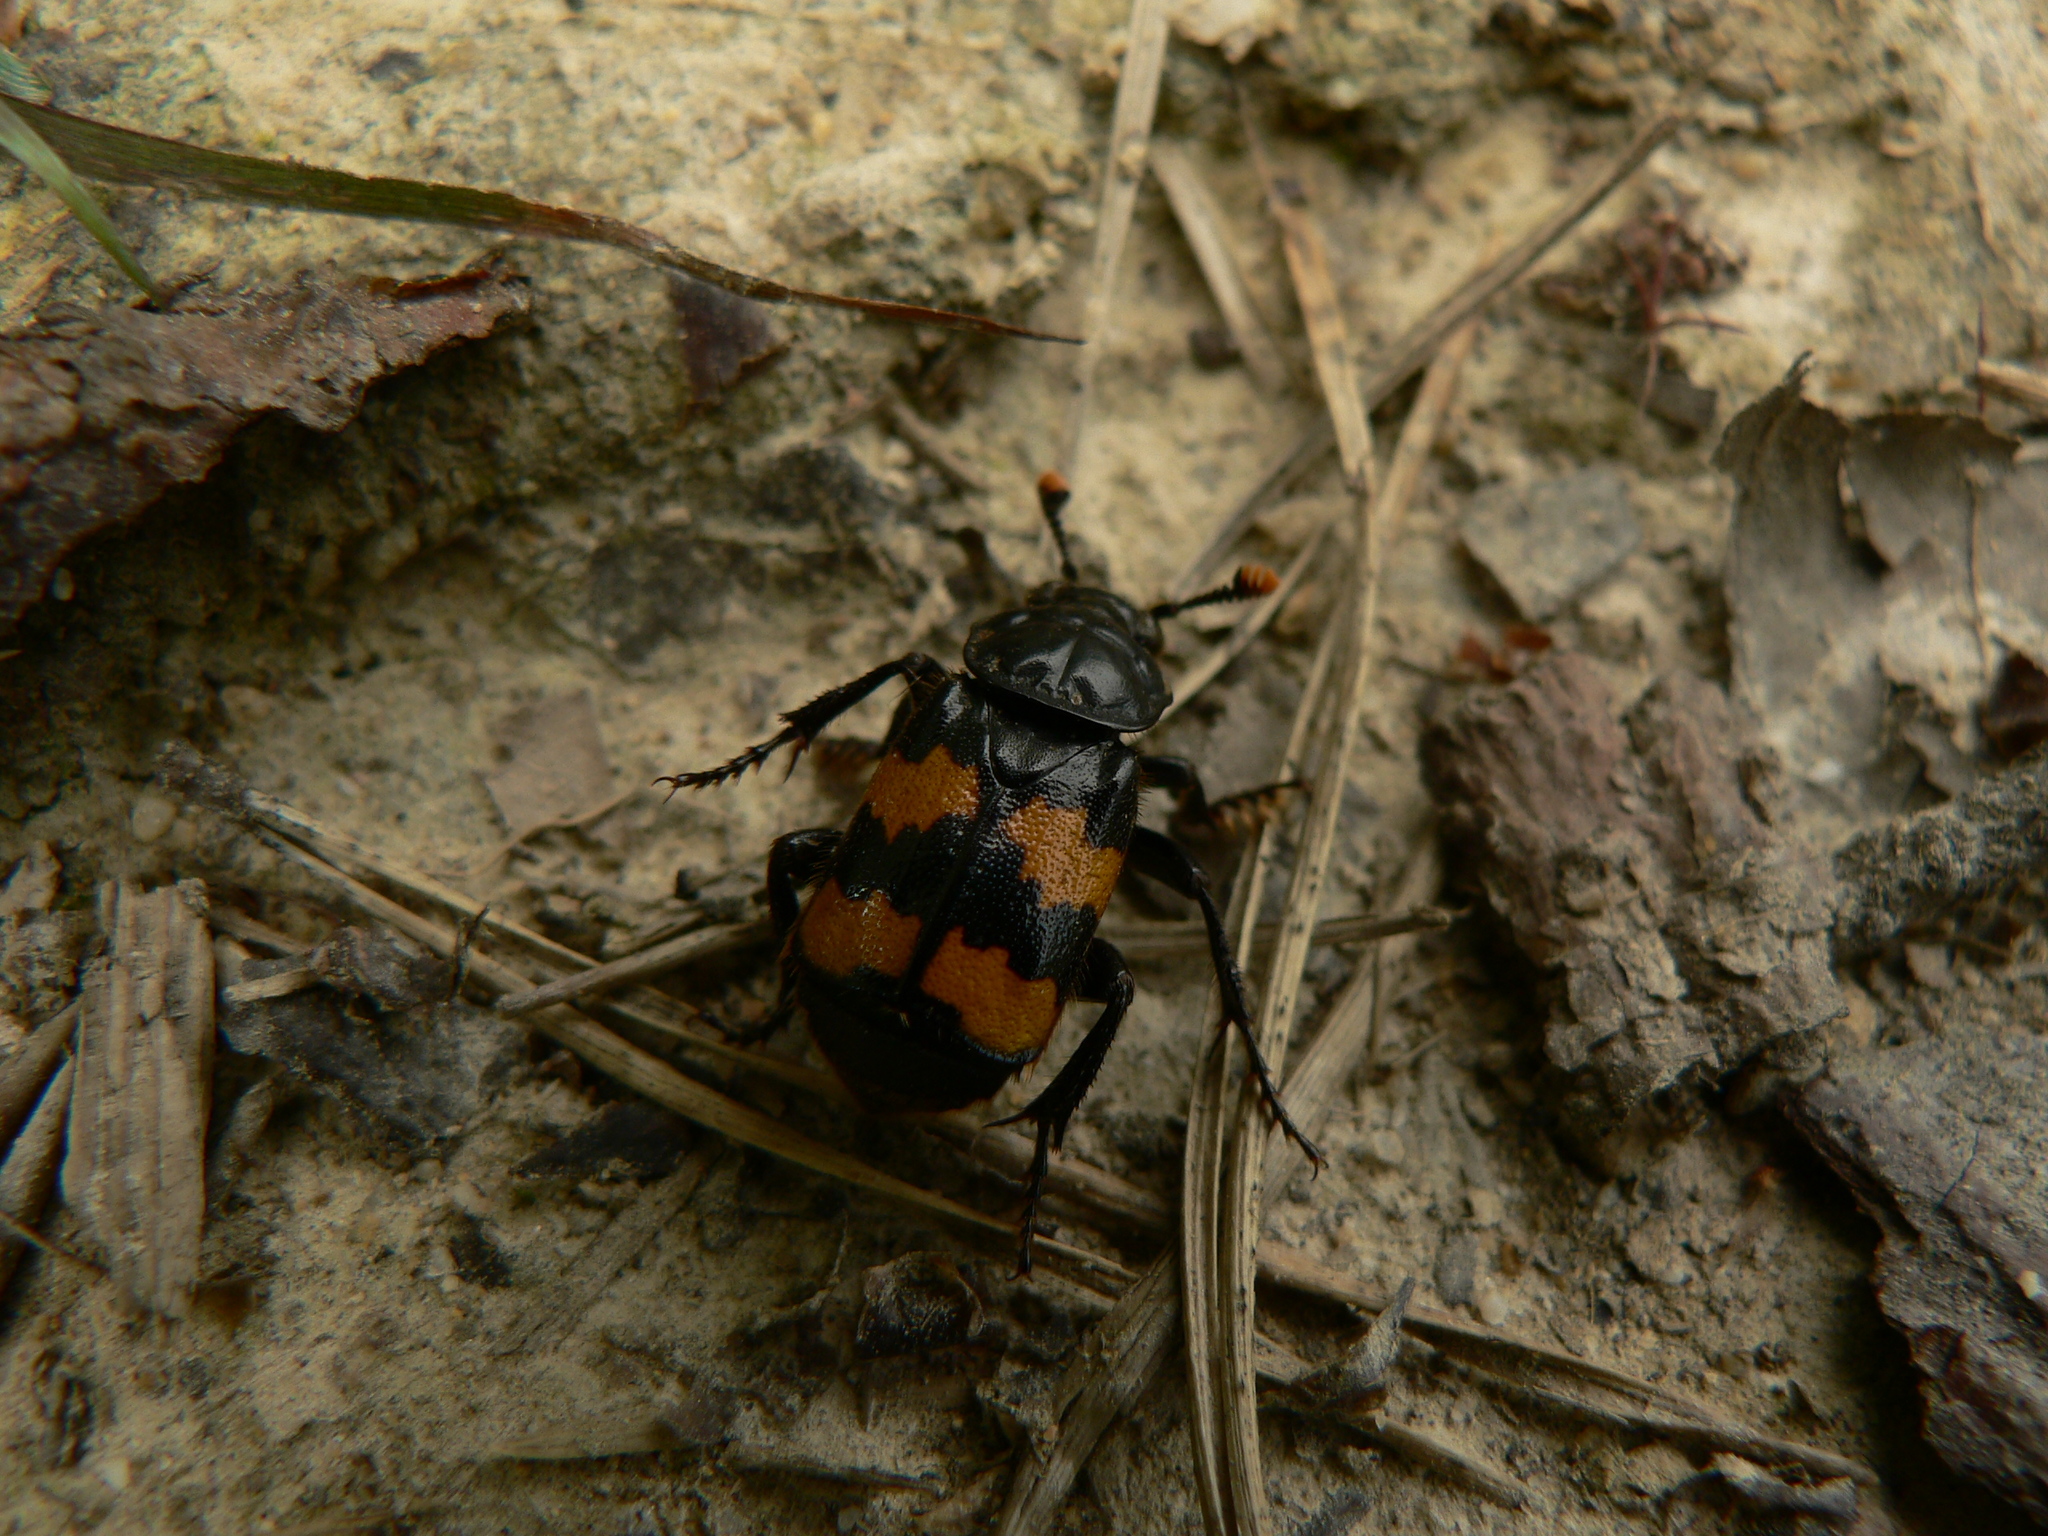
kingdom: Animalia
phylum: Arthropoda
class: Insecta
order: Coleoptera
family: Staphylinidae
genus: Nicrophorus
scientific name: Nicrophorus interruptus
